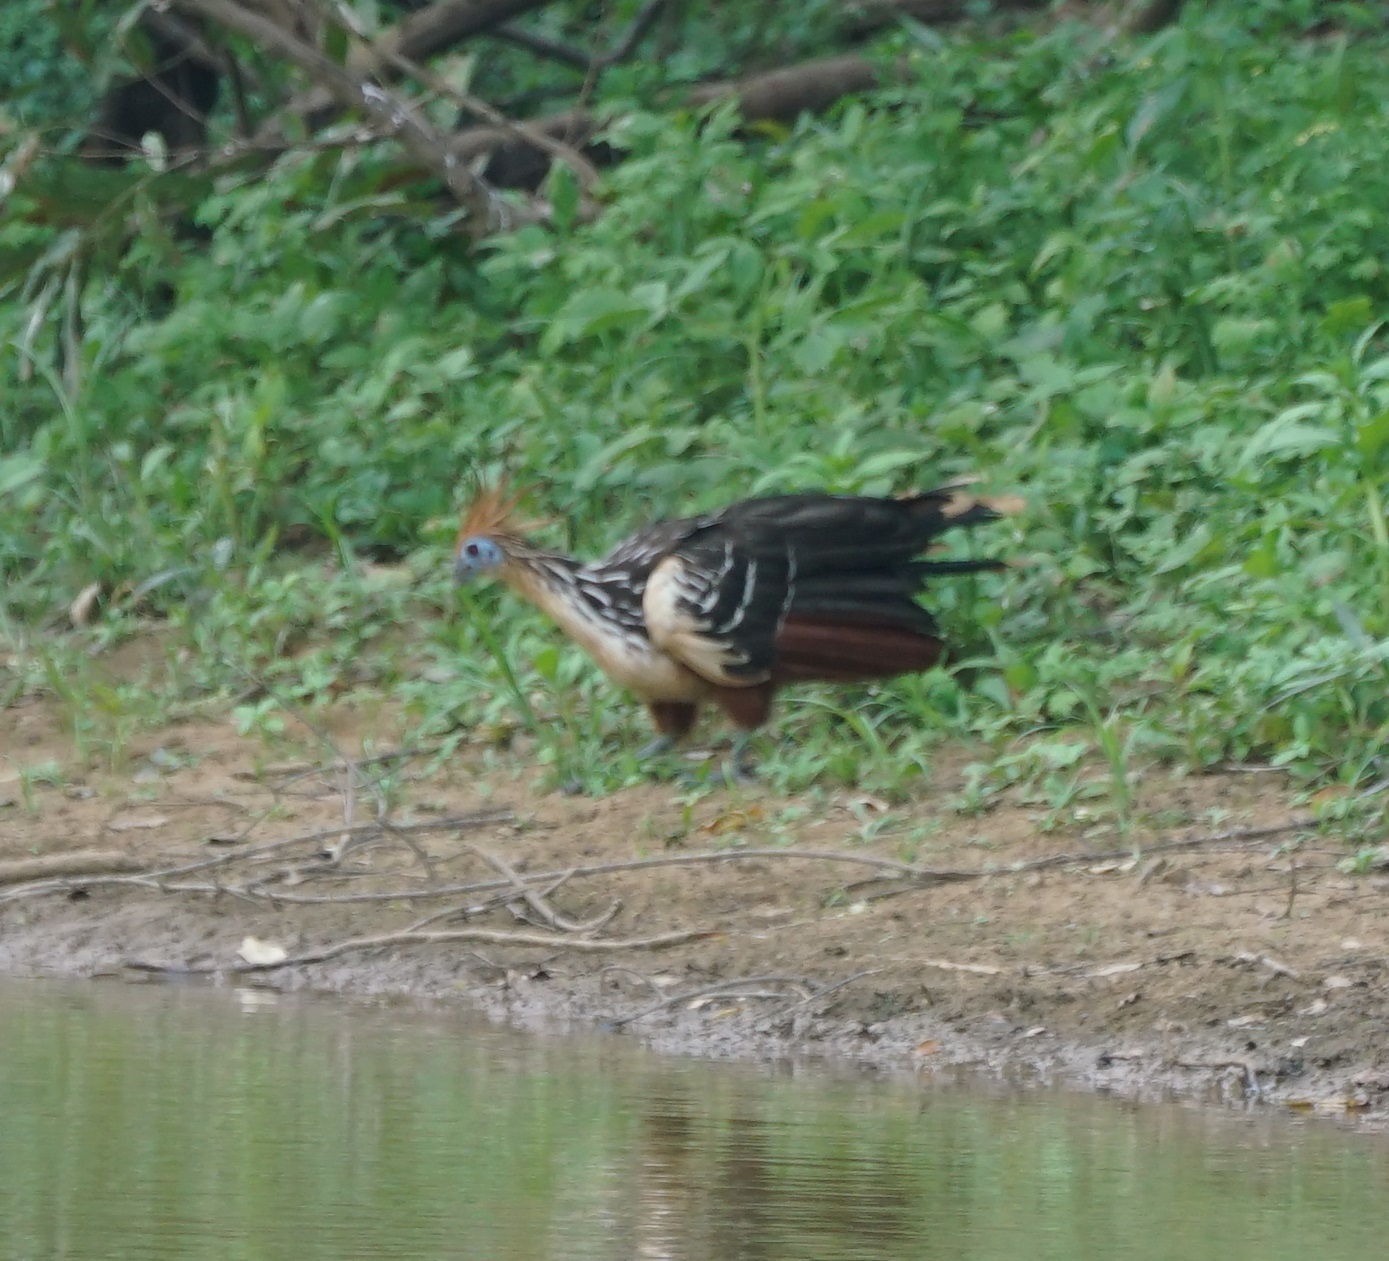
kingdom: Animalia
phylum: Chordata
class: Aves
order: Opisthocomiformes
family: Opisthocomidae
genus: Opisthocomus
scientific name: Opisthocomus hoazin
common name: Hoatzin
